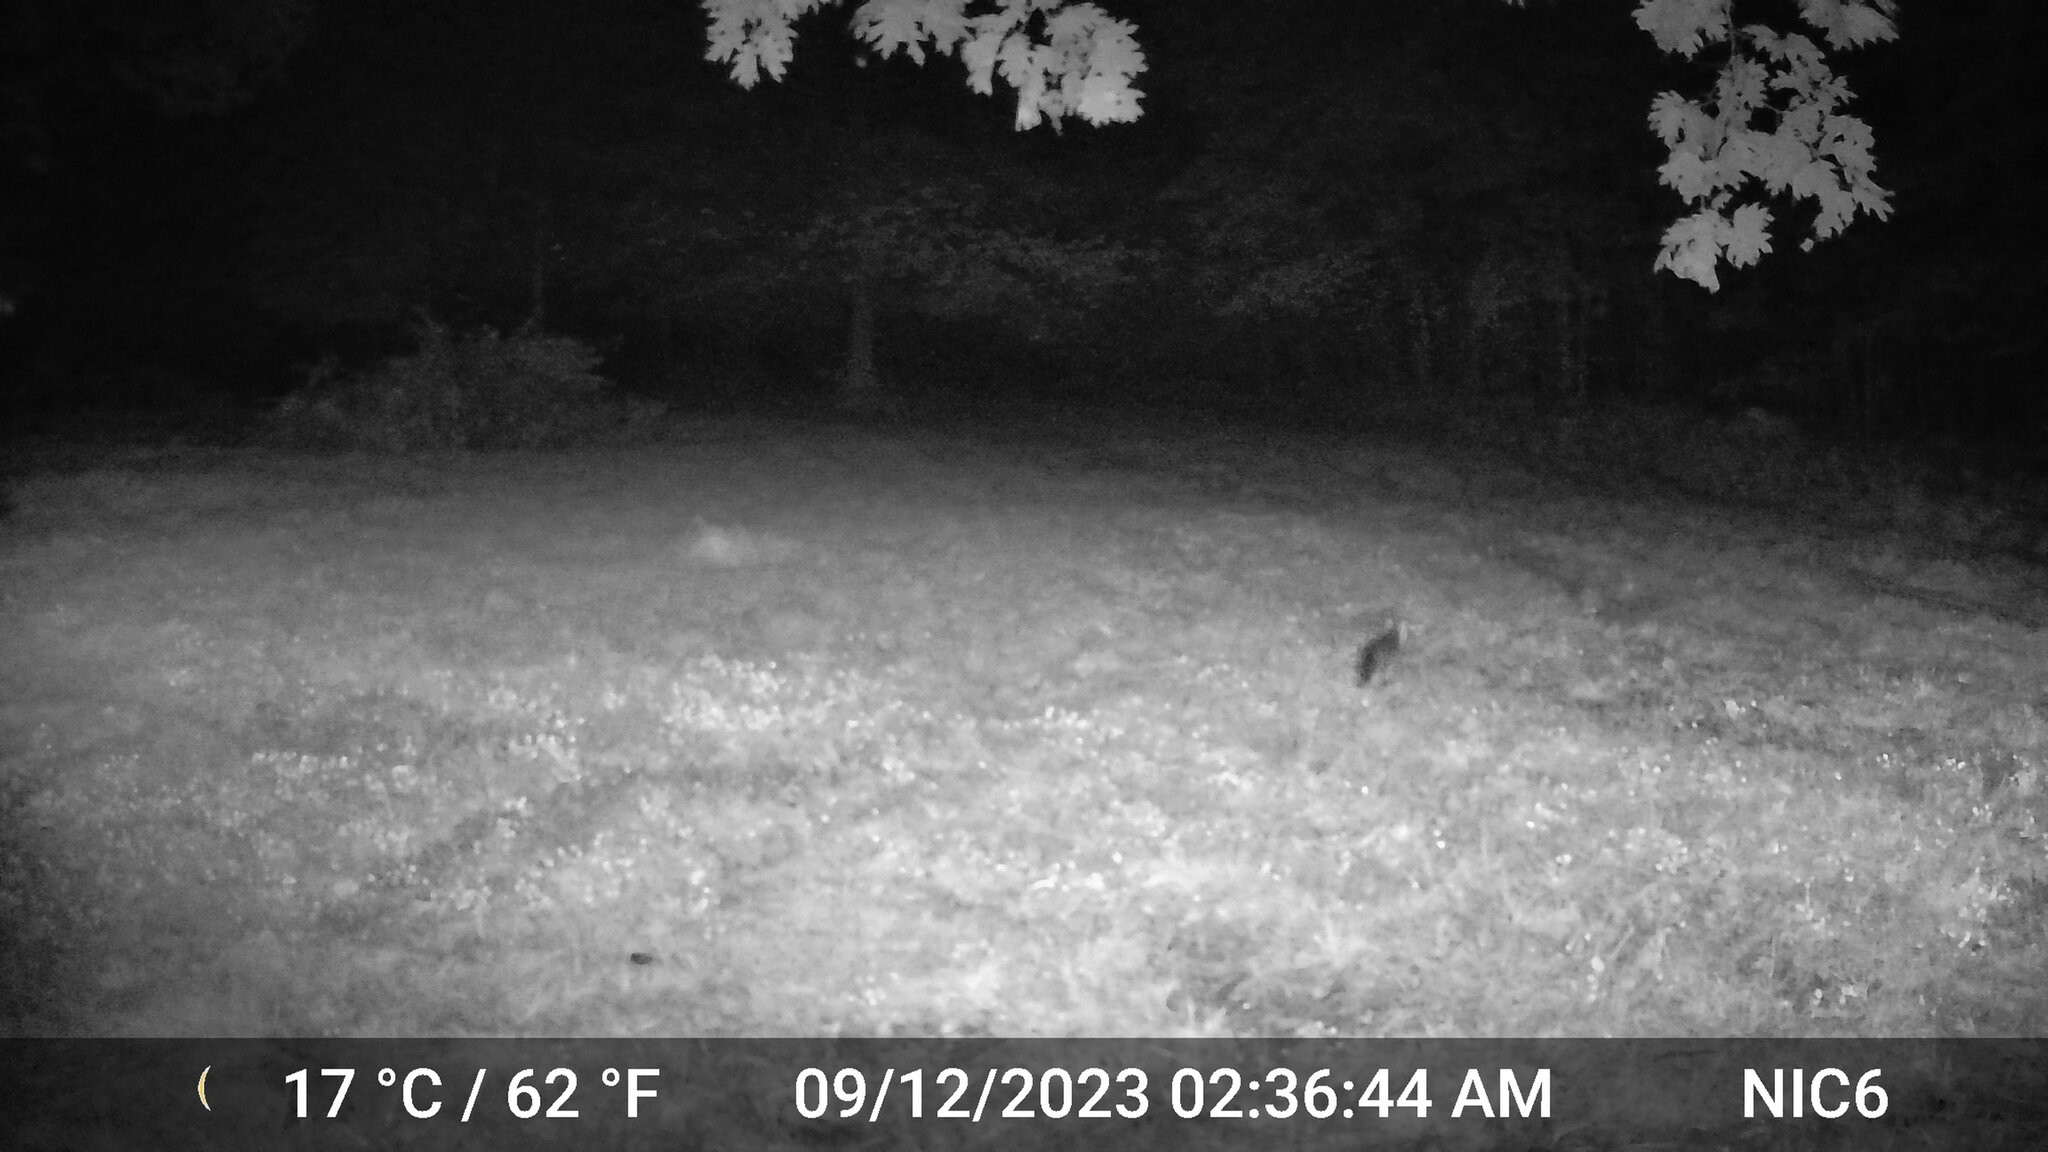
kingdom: Animalia
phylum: Chordata
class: Mammalia
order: Carnivora
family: Canidae
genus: Urocyon
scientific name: Urocyon cinereoargenteus
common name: Gray fox
